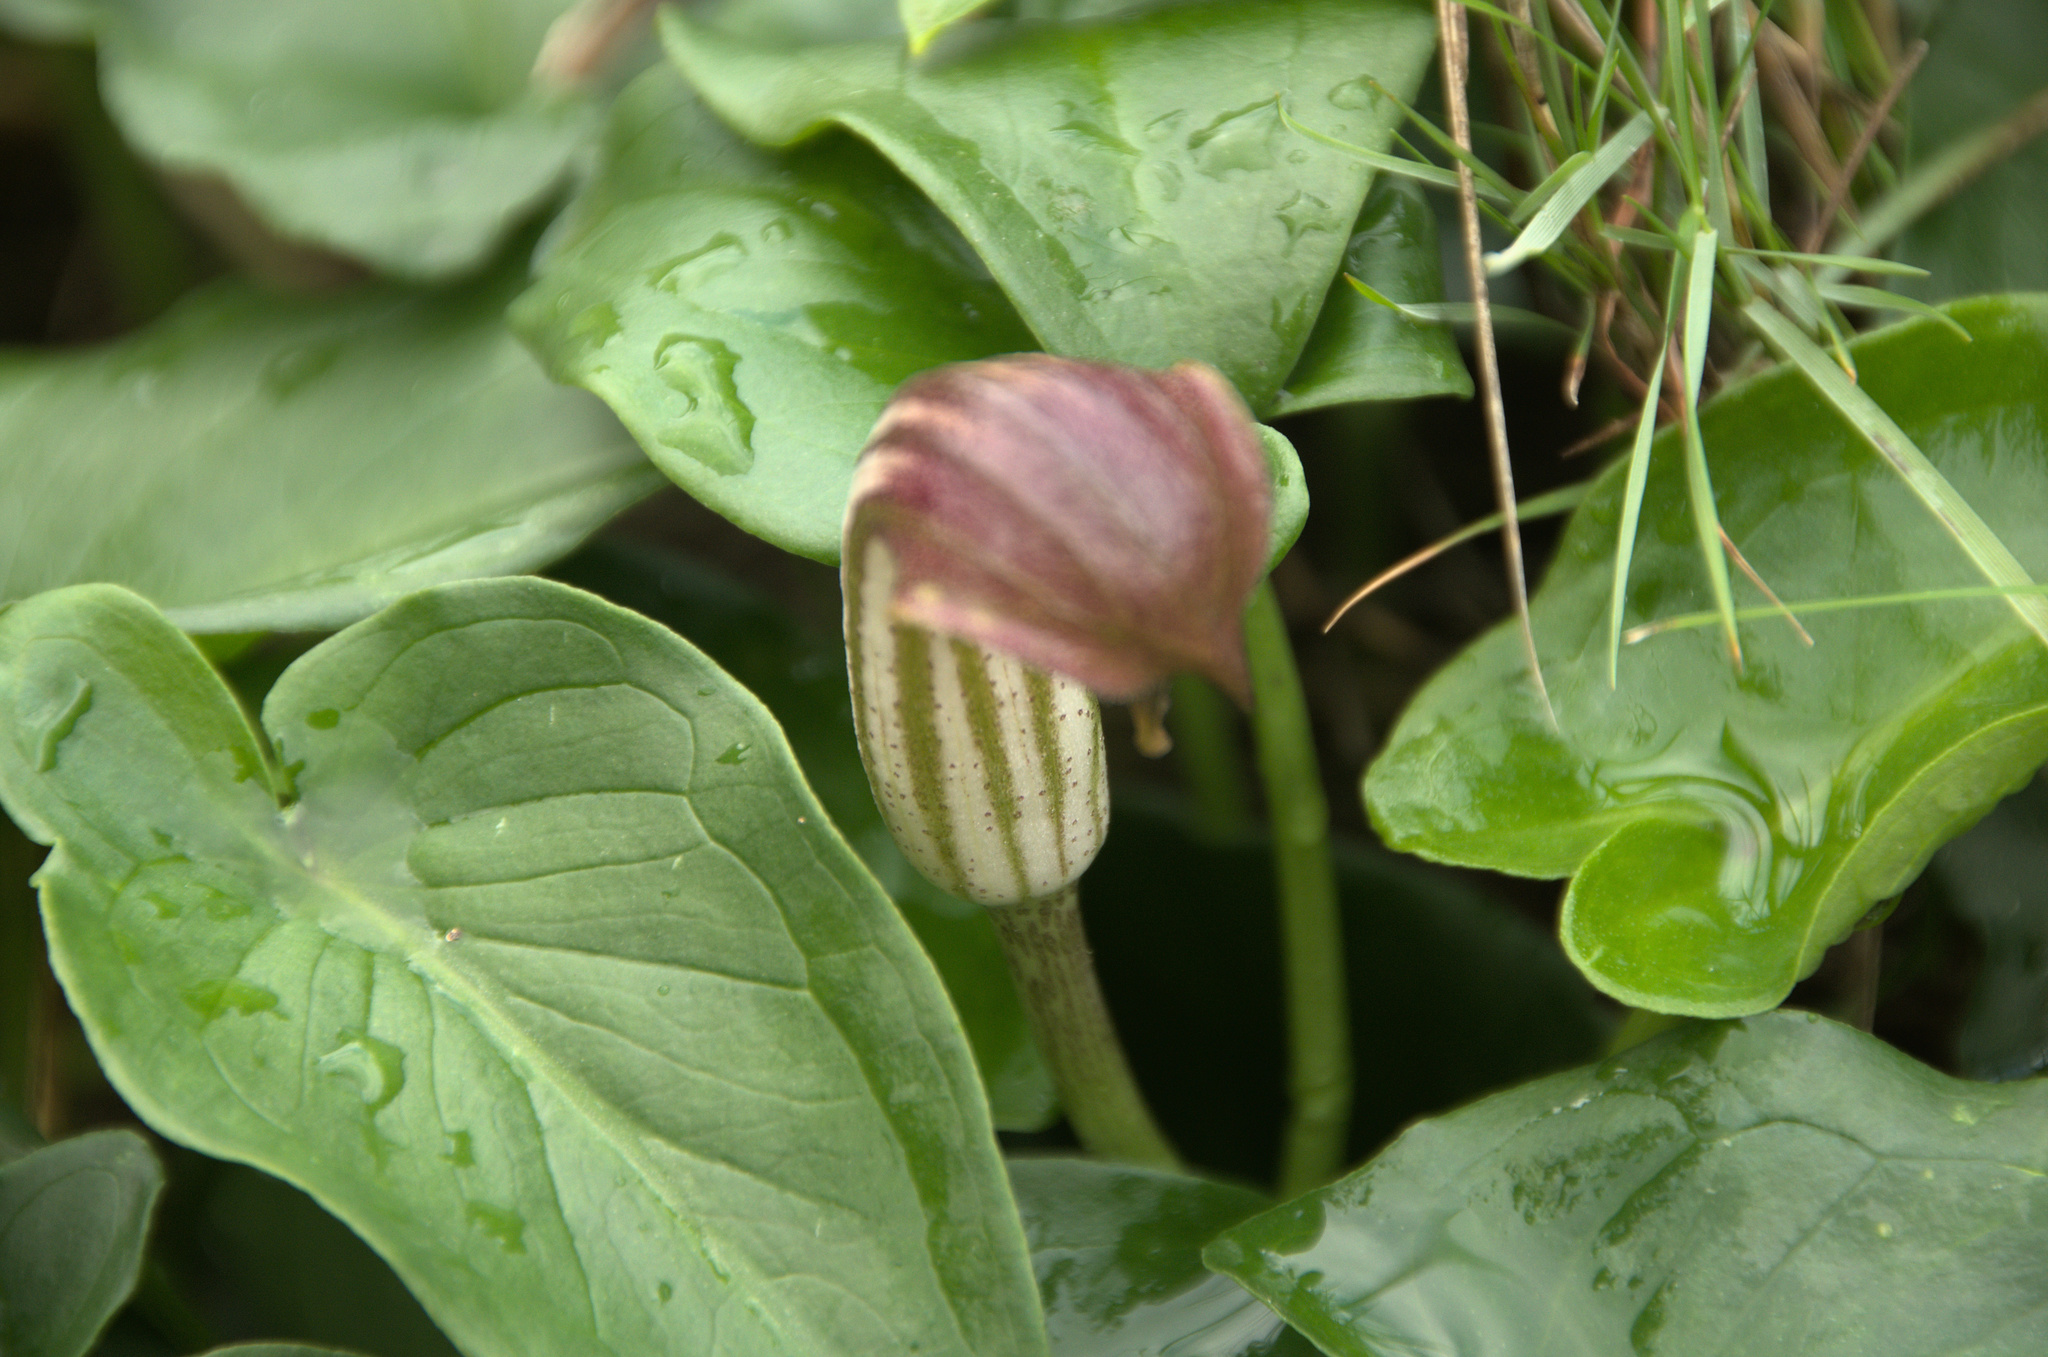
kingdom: Plantae
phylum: Tracheophyta
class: Liliopsida
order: Alismatales
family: Araceae
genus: Arisarum
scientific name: Arisarum vulgare
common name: Common arisarum
